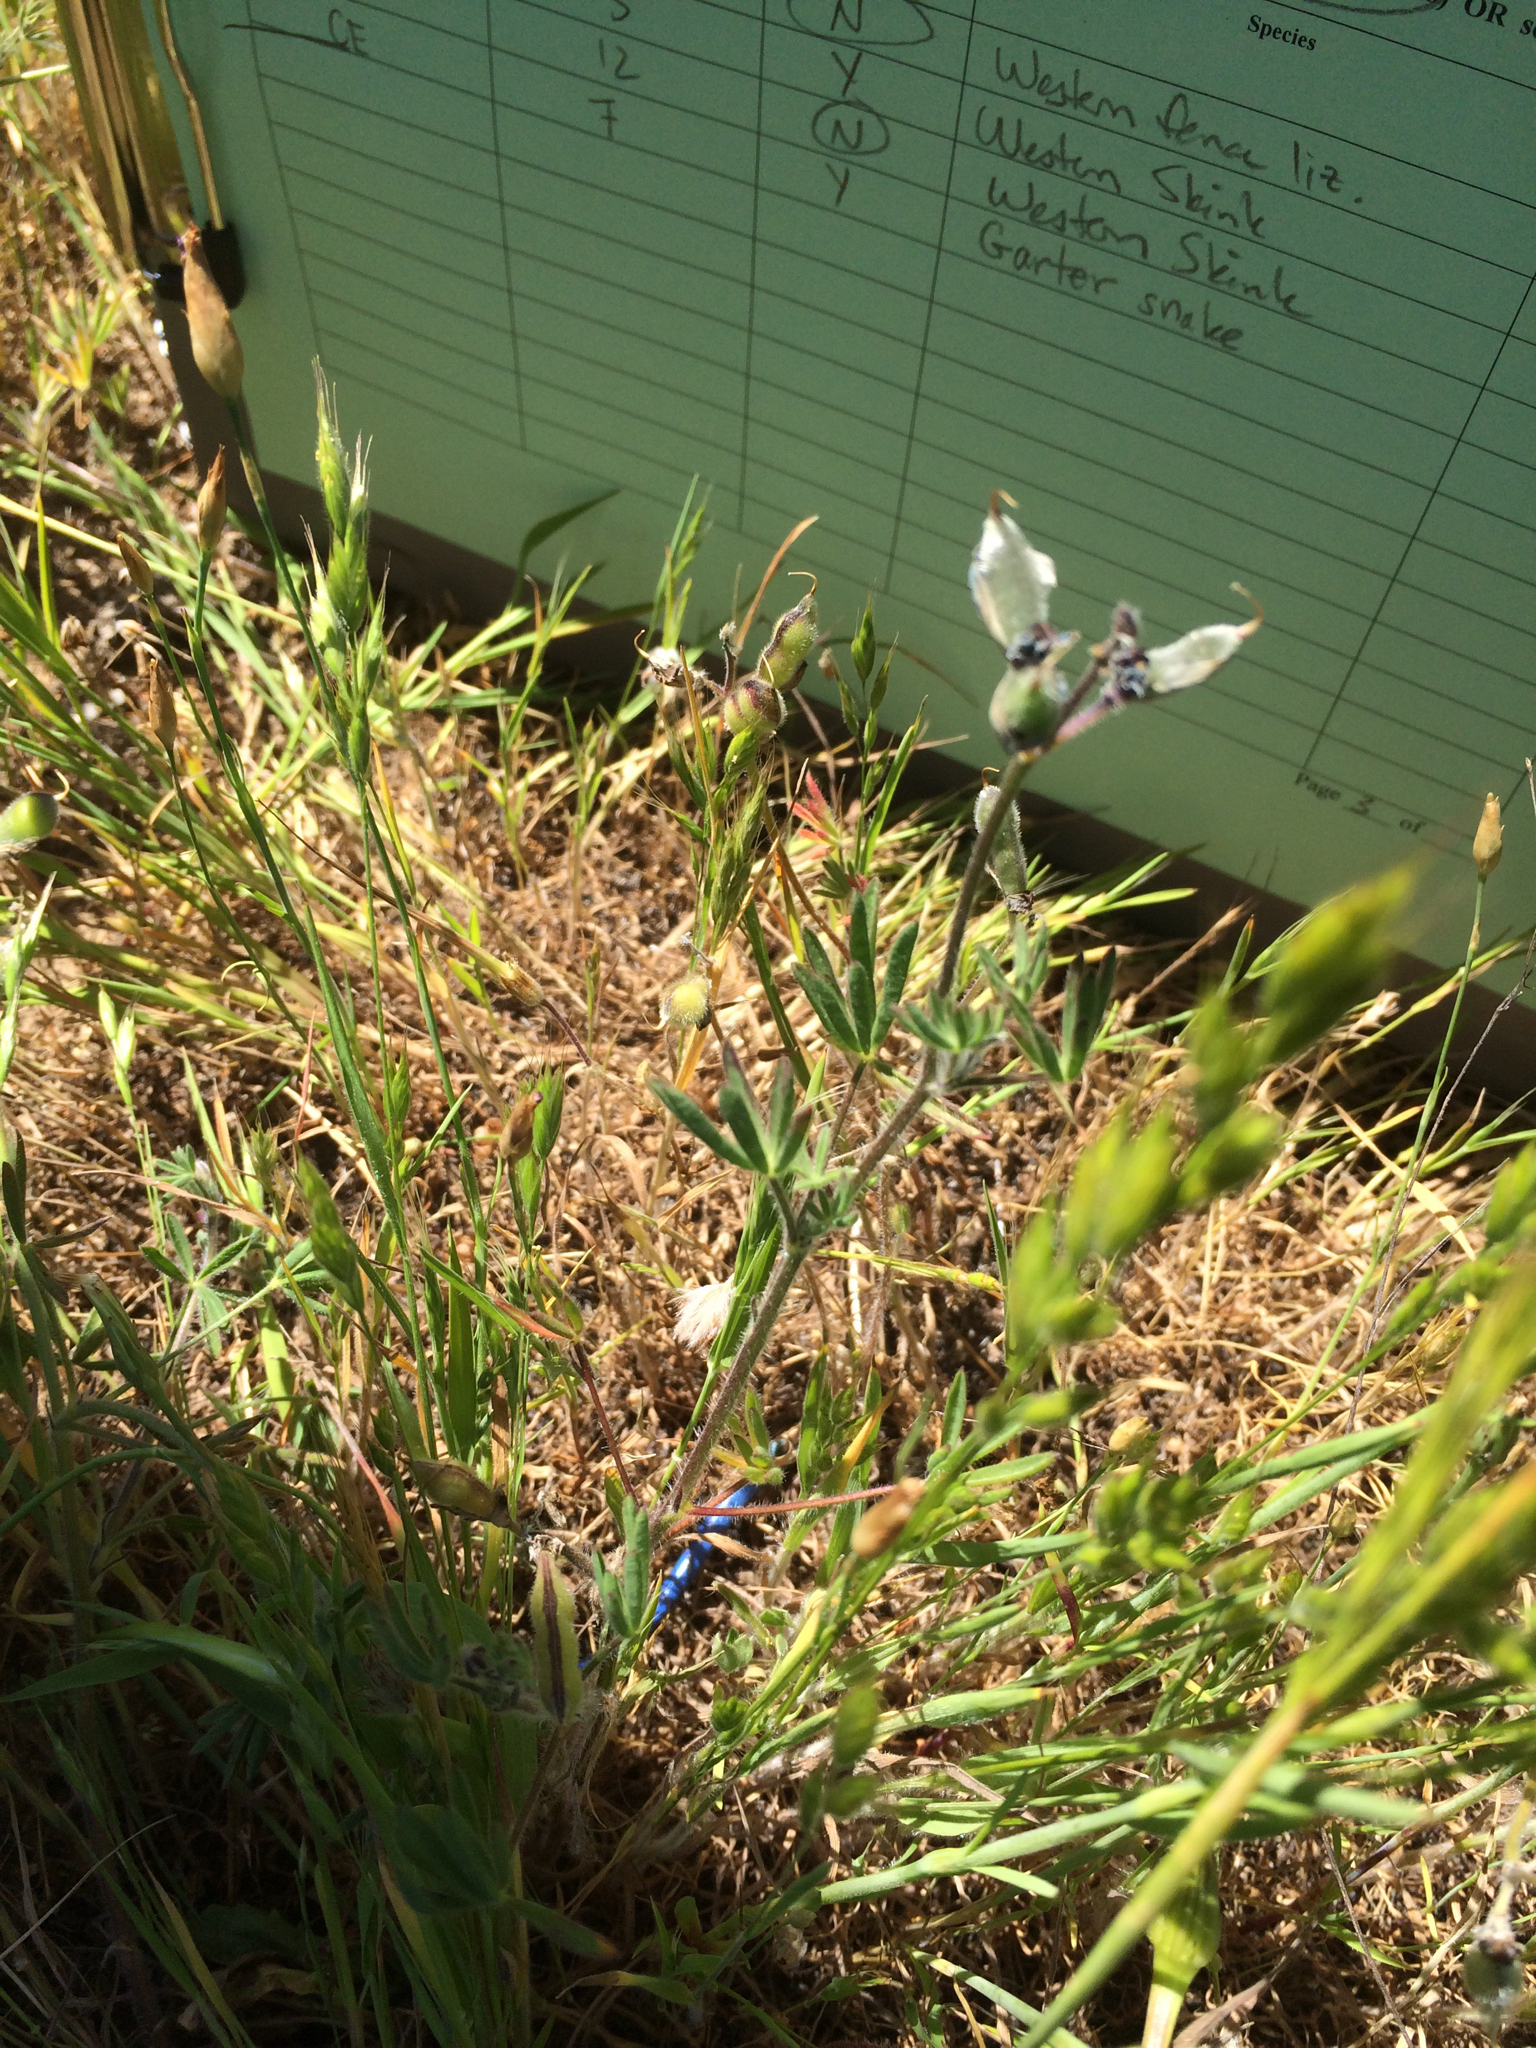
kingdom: Animalia
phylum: Chordata
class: Squamata
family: Scincidae
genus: Plestiodon
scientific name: Plestiodon skiltonianus
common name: Coronado island skink [interparietalis]
